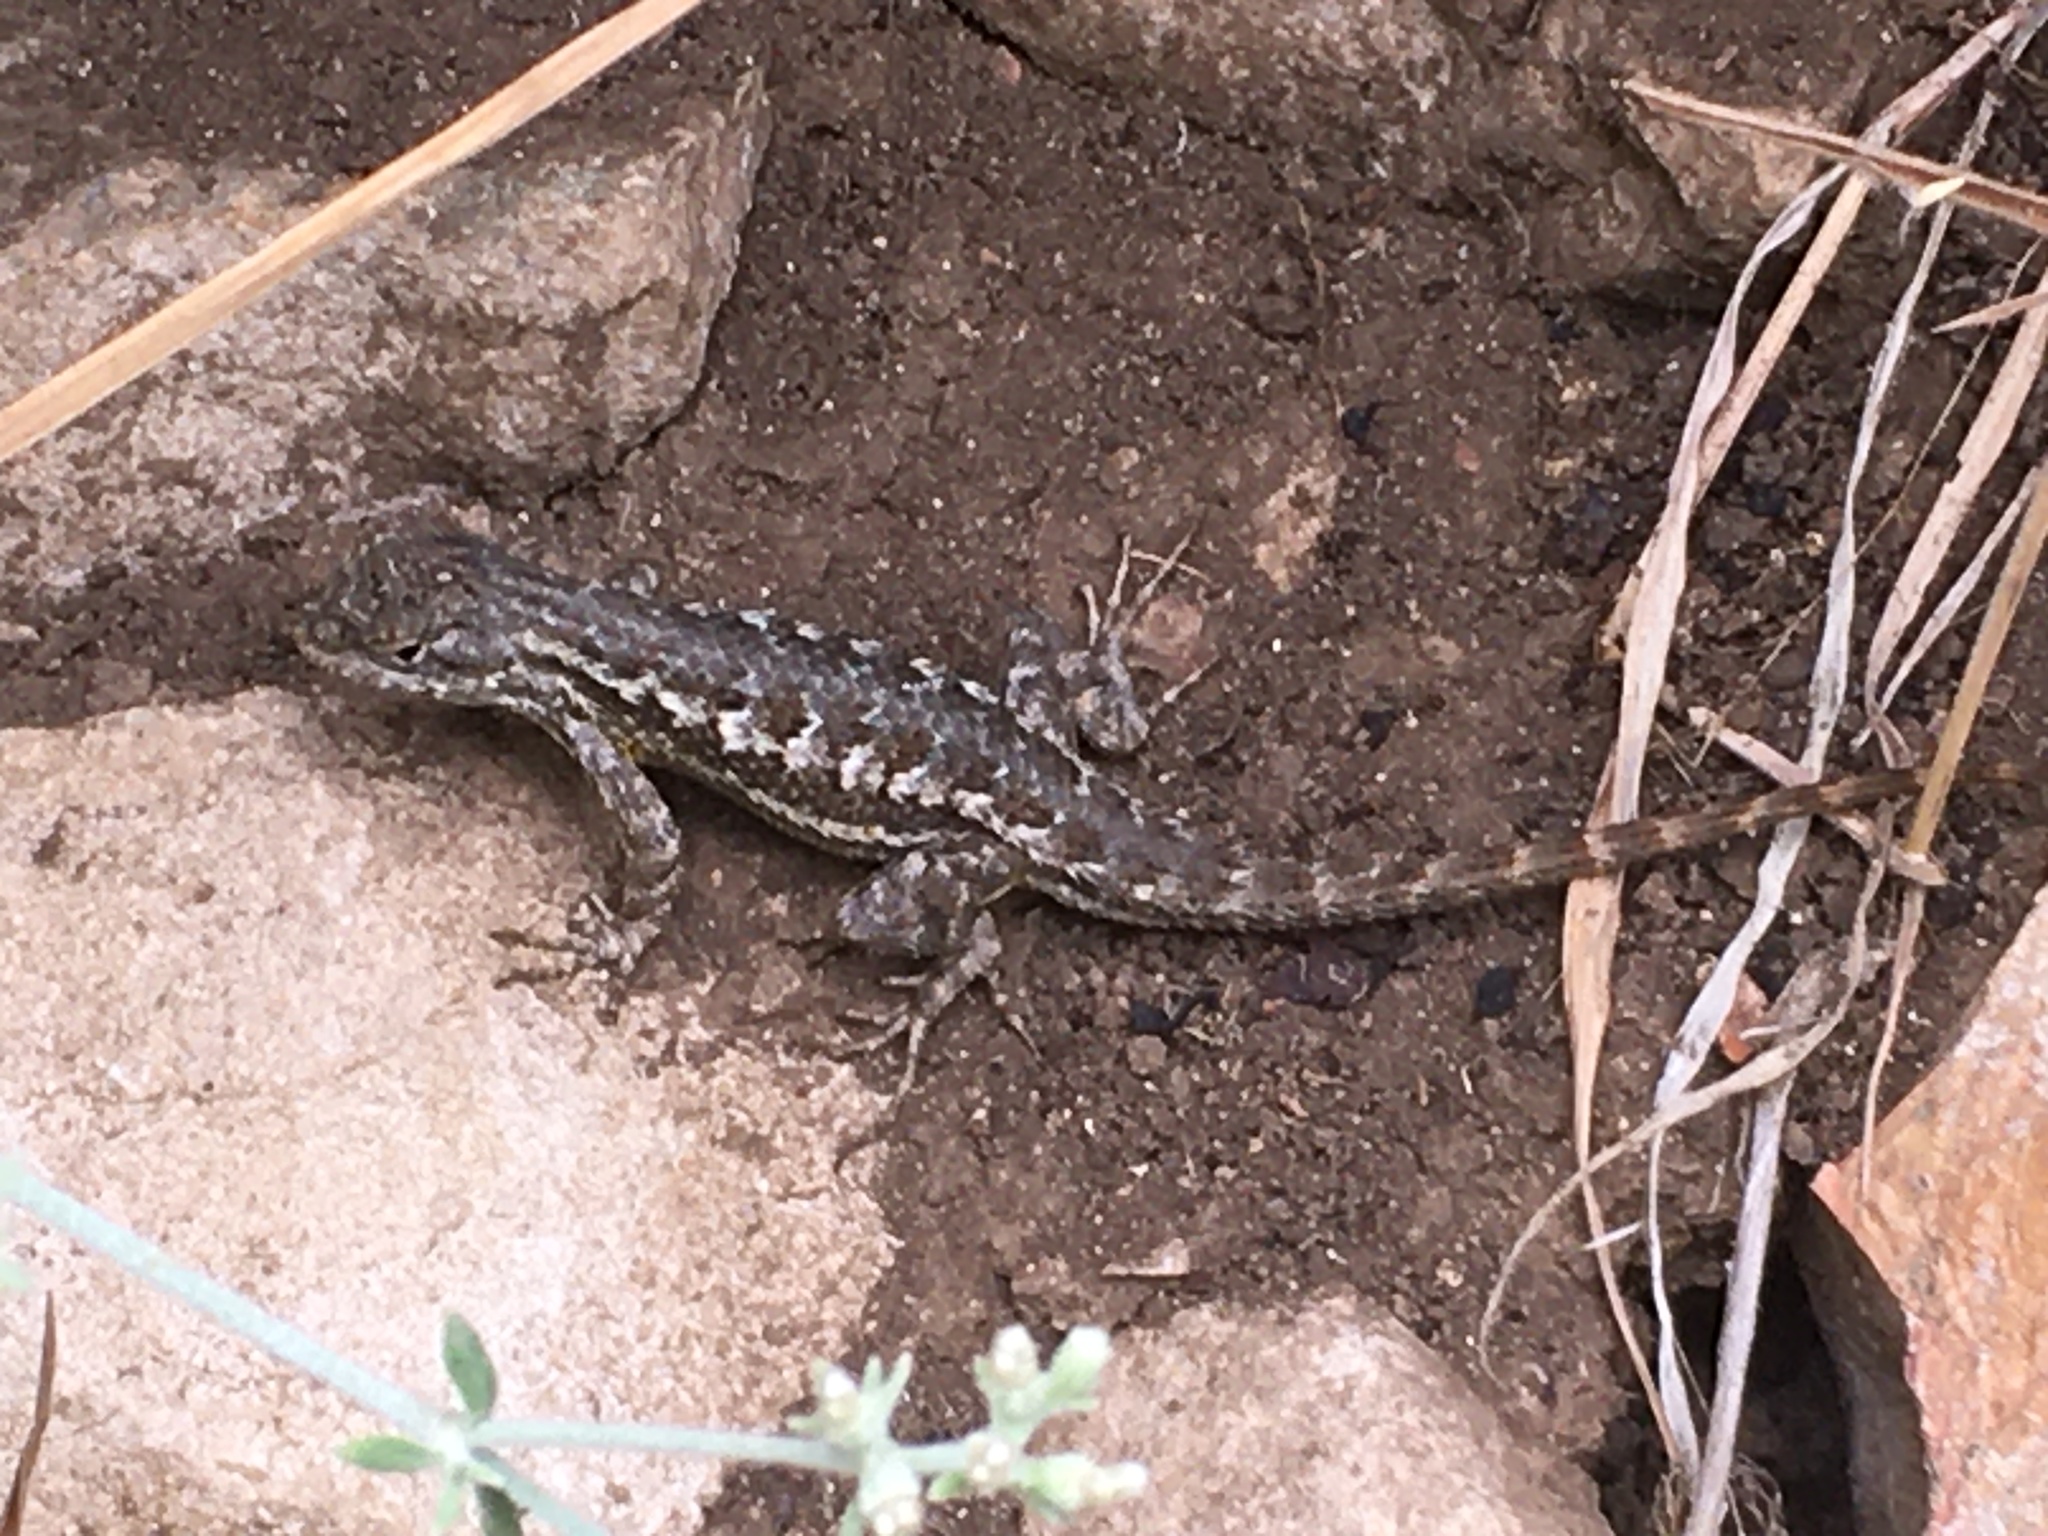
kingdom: Animalia
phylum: Chordata
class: Squamata
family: Phrynosomatidae
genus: Sceloporus
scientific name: Sceloporus occidentalis
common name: Western fence lizard
